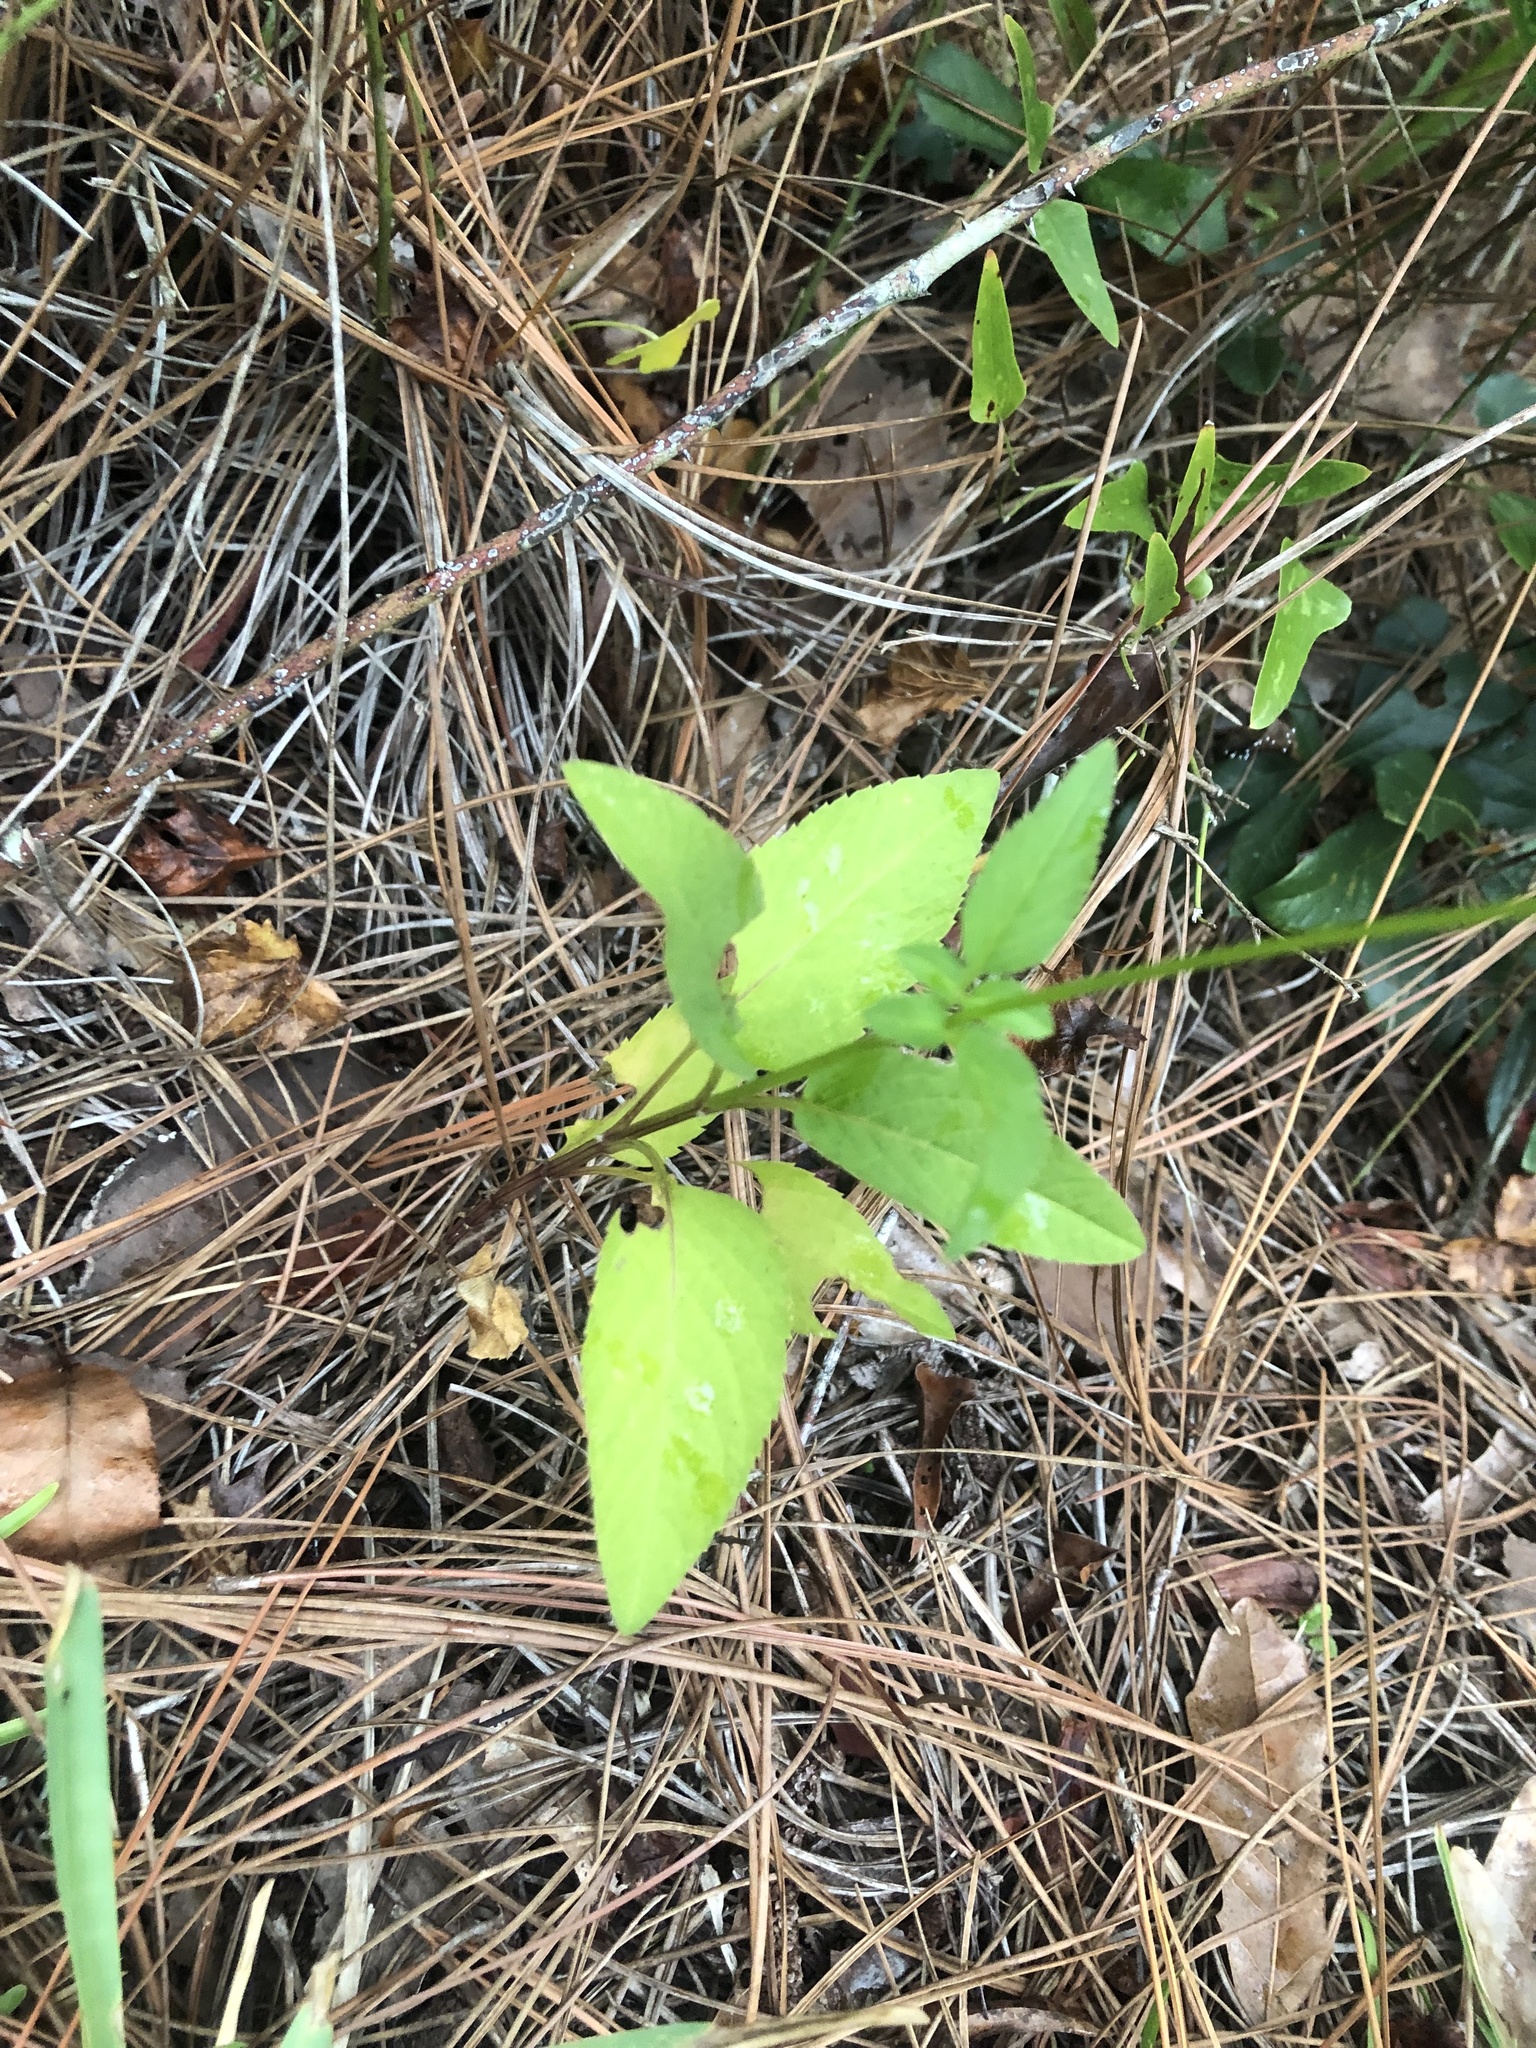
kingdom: Plantae
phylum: Tracheophyta
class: Magnoliopsida
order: Asterales
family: Asteraceae
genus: Bidens
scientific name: Bidens alba
